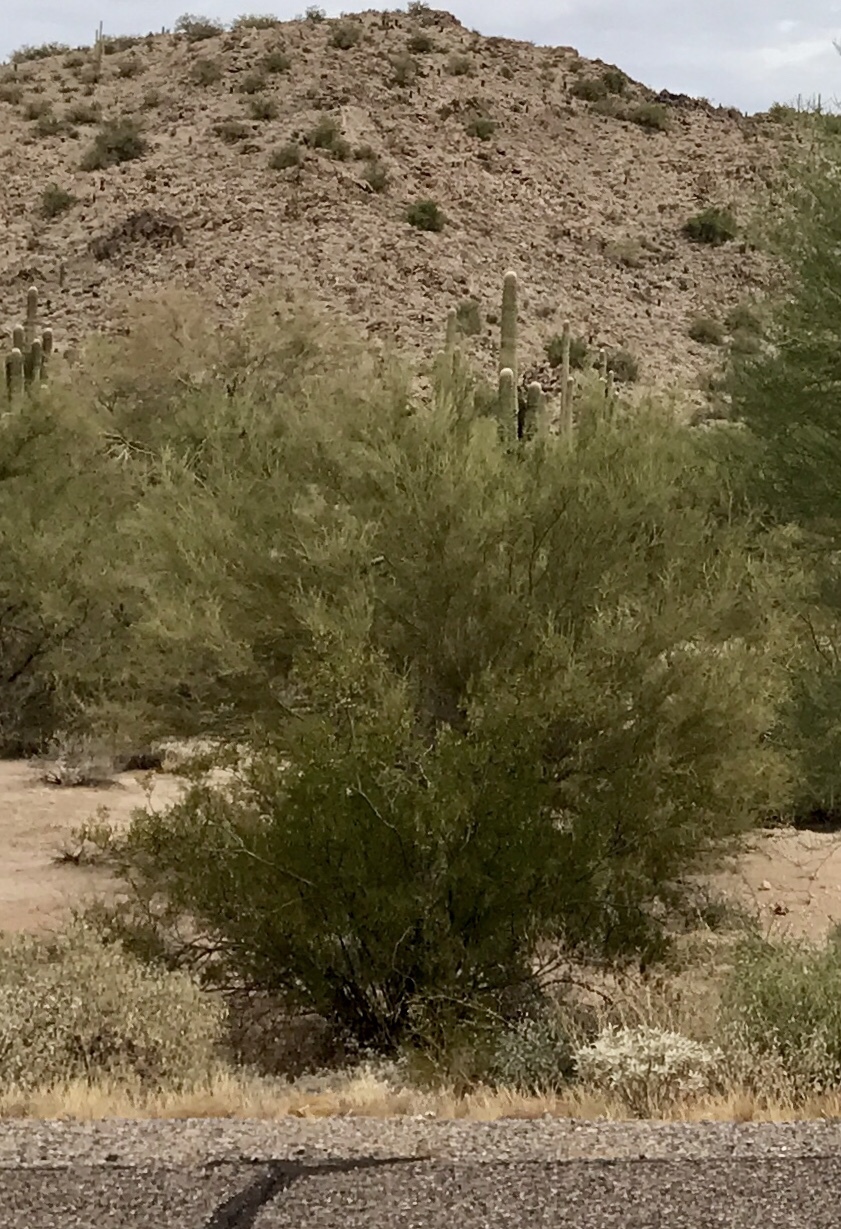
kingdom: Plantae
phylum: Tracheophyta
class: Magnoliopsida
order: Zygophyllales
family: Zygophyllaceae
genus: Larrea
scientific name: Larrea tridentata
